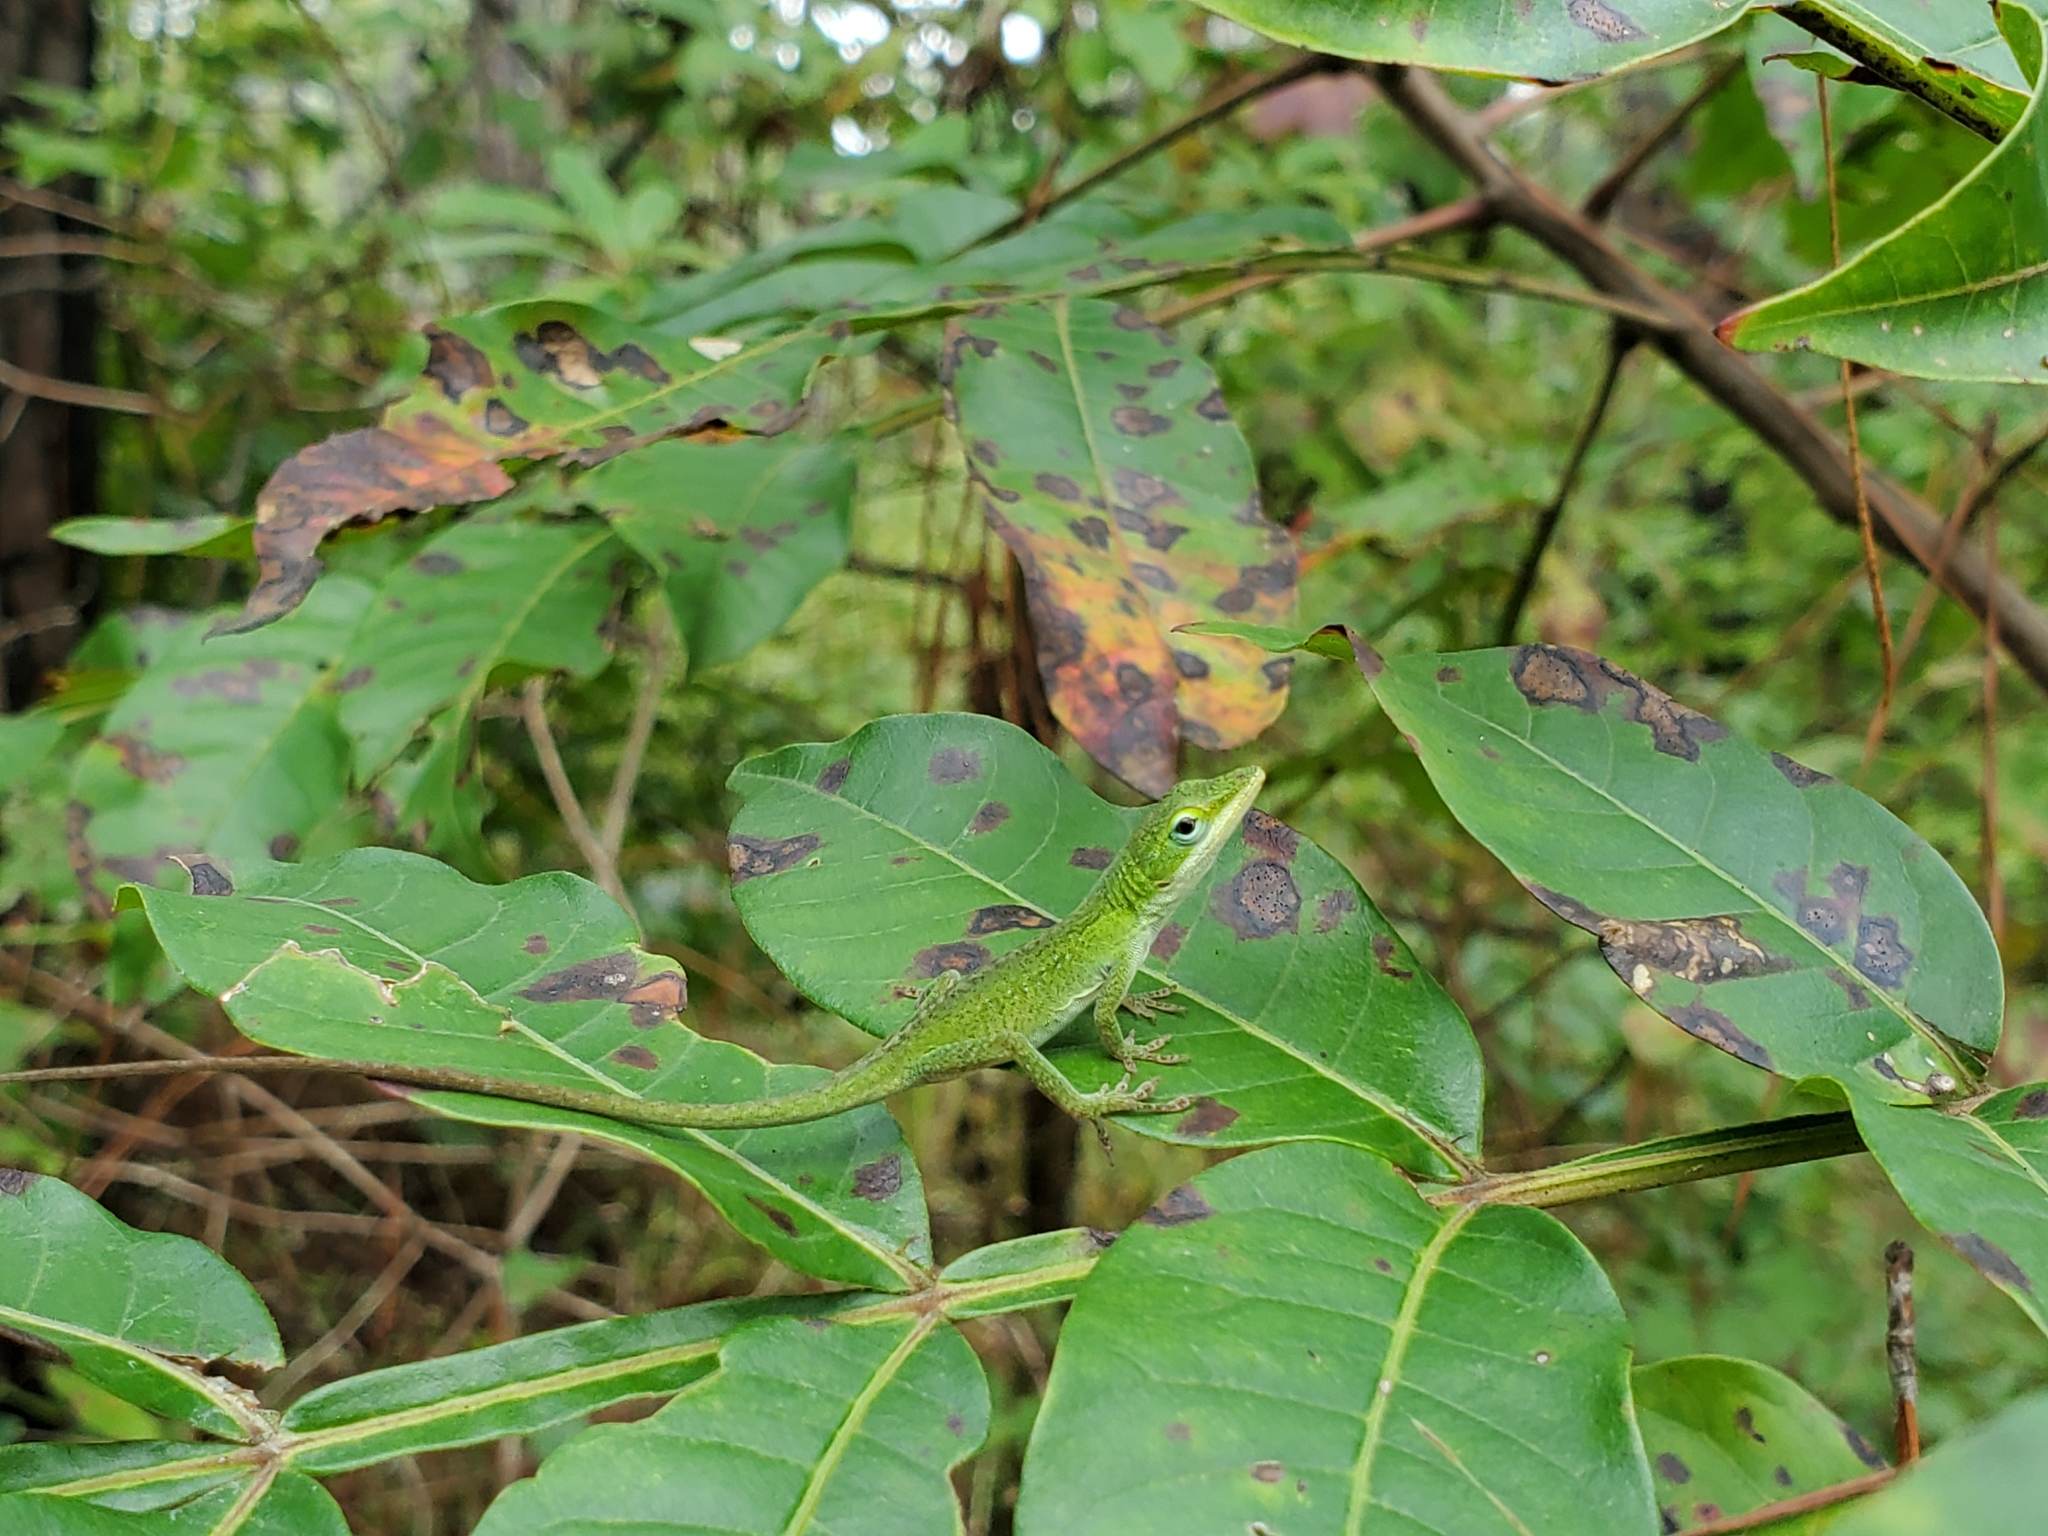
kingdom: Animalia
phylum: Chordata
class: Squamata
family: Dactyloidae
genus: Anolis
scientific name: Anolis carolinensis
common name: Green anole
